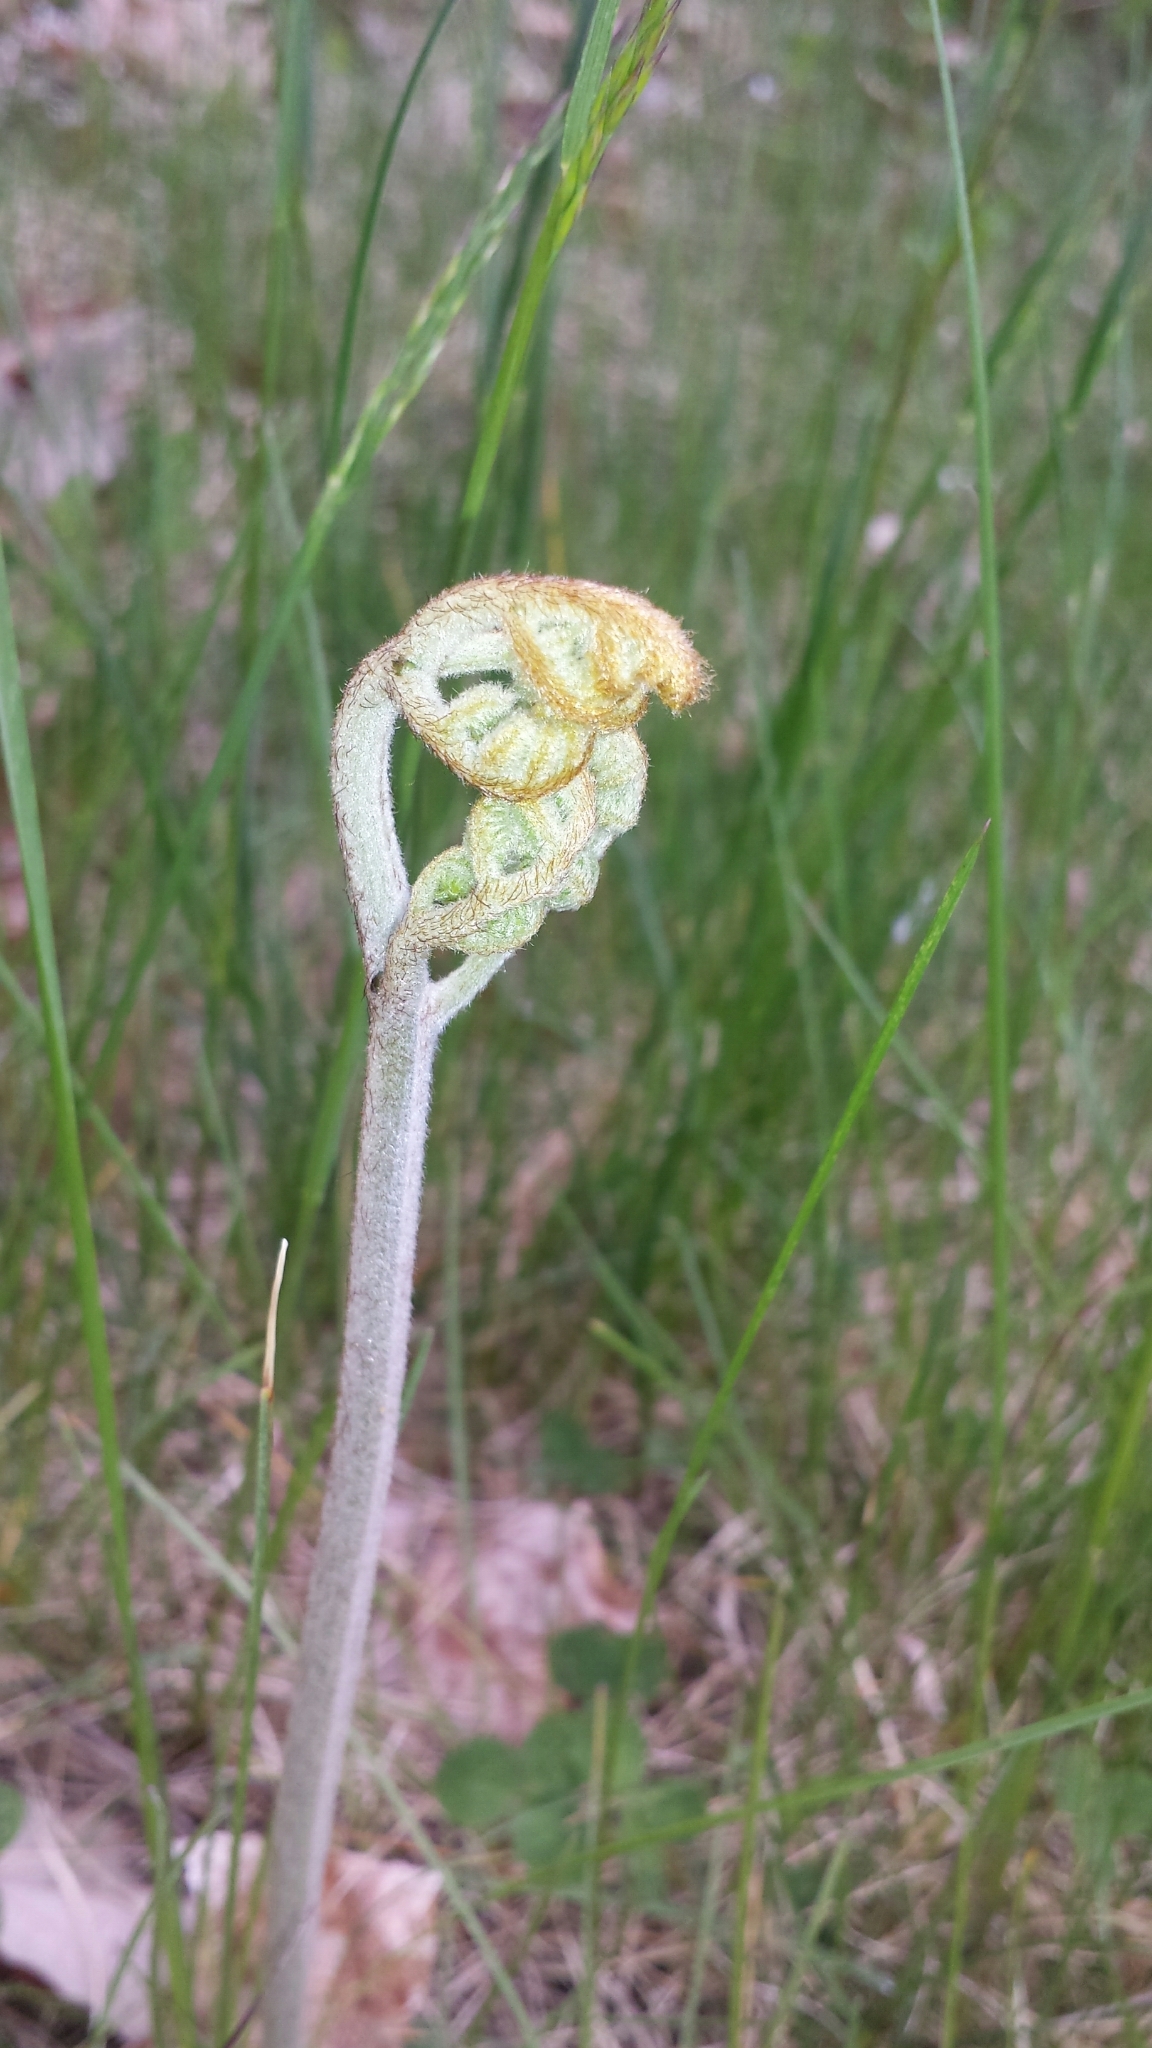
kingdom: Plantae
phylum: Tracheophyta
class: Polypodiopsida
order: Polypodiales
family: Dennstaedtiaceae
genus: Pteridium
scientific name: Pteridium aquilinum
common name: Bracken
